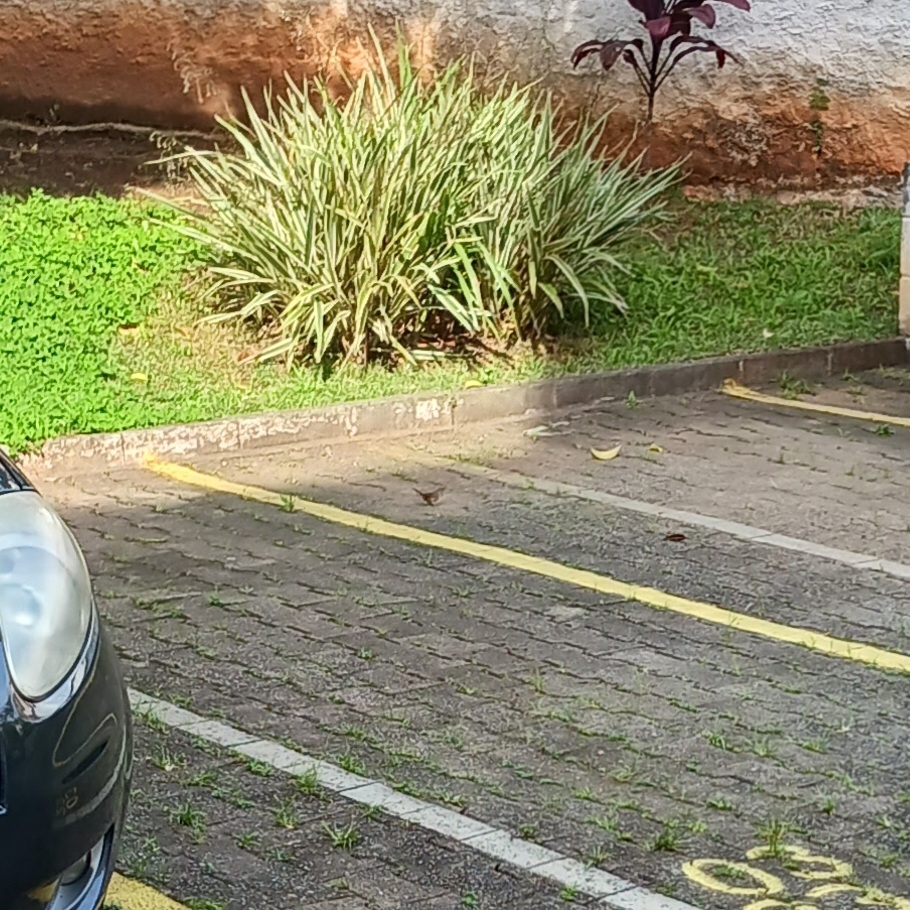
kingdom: Animalia
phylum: Chordata
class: Aves
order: Passeriformes
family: Troglodytidae
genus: Troglodytes
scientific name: Troglodytes aedon
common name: House wren
